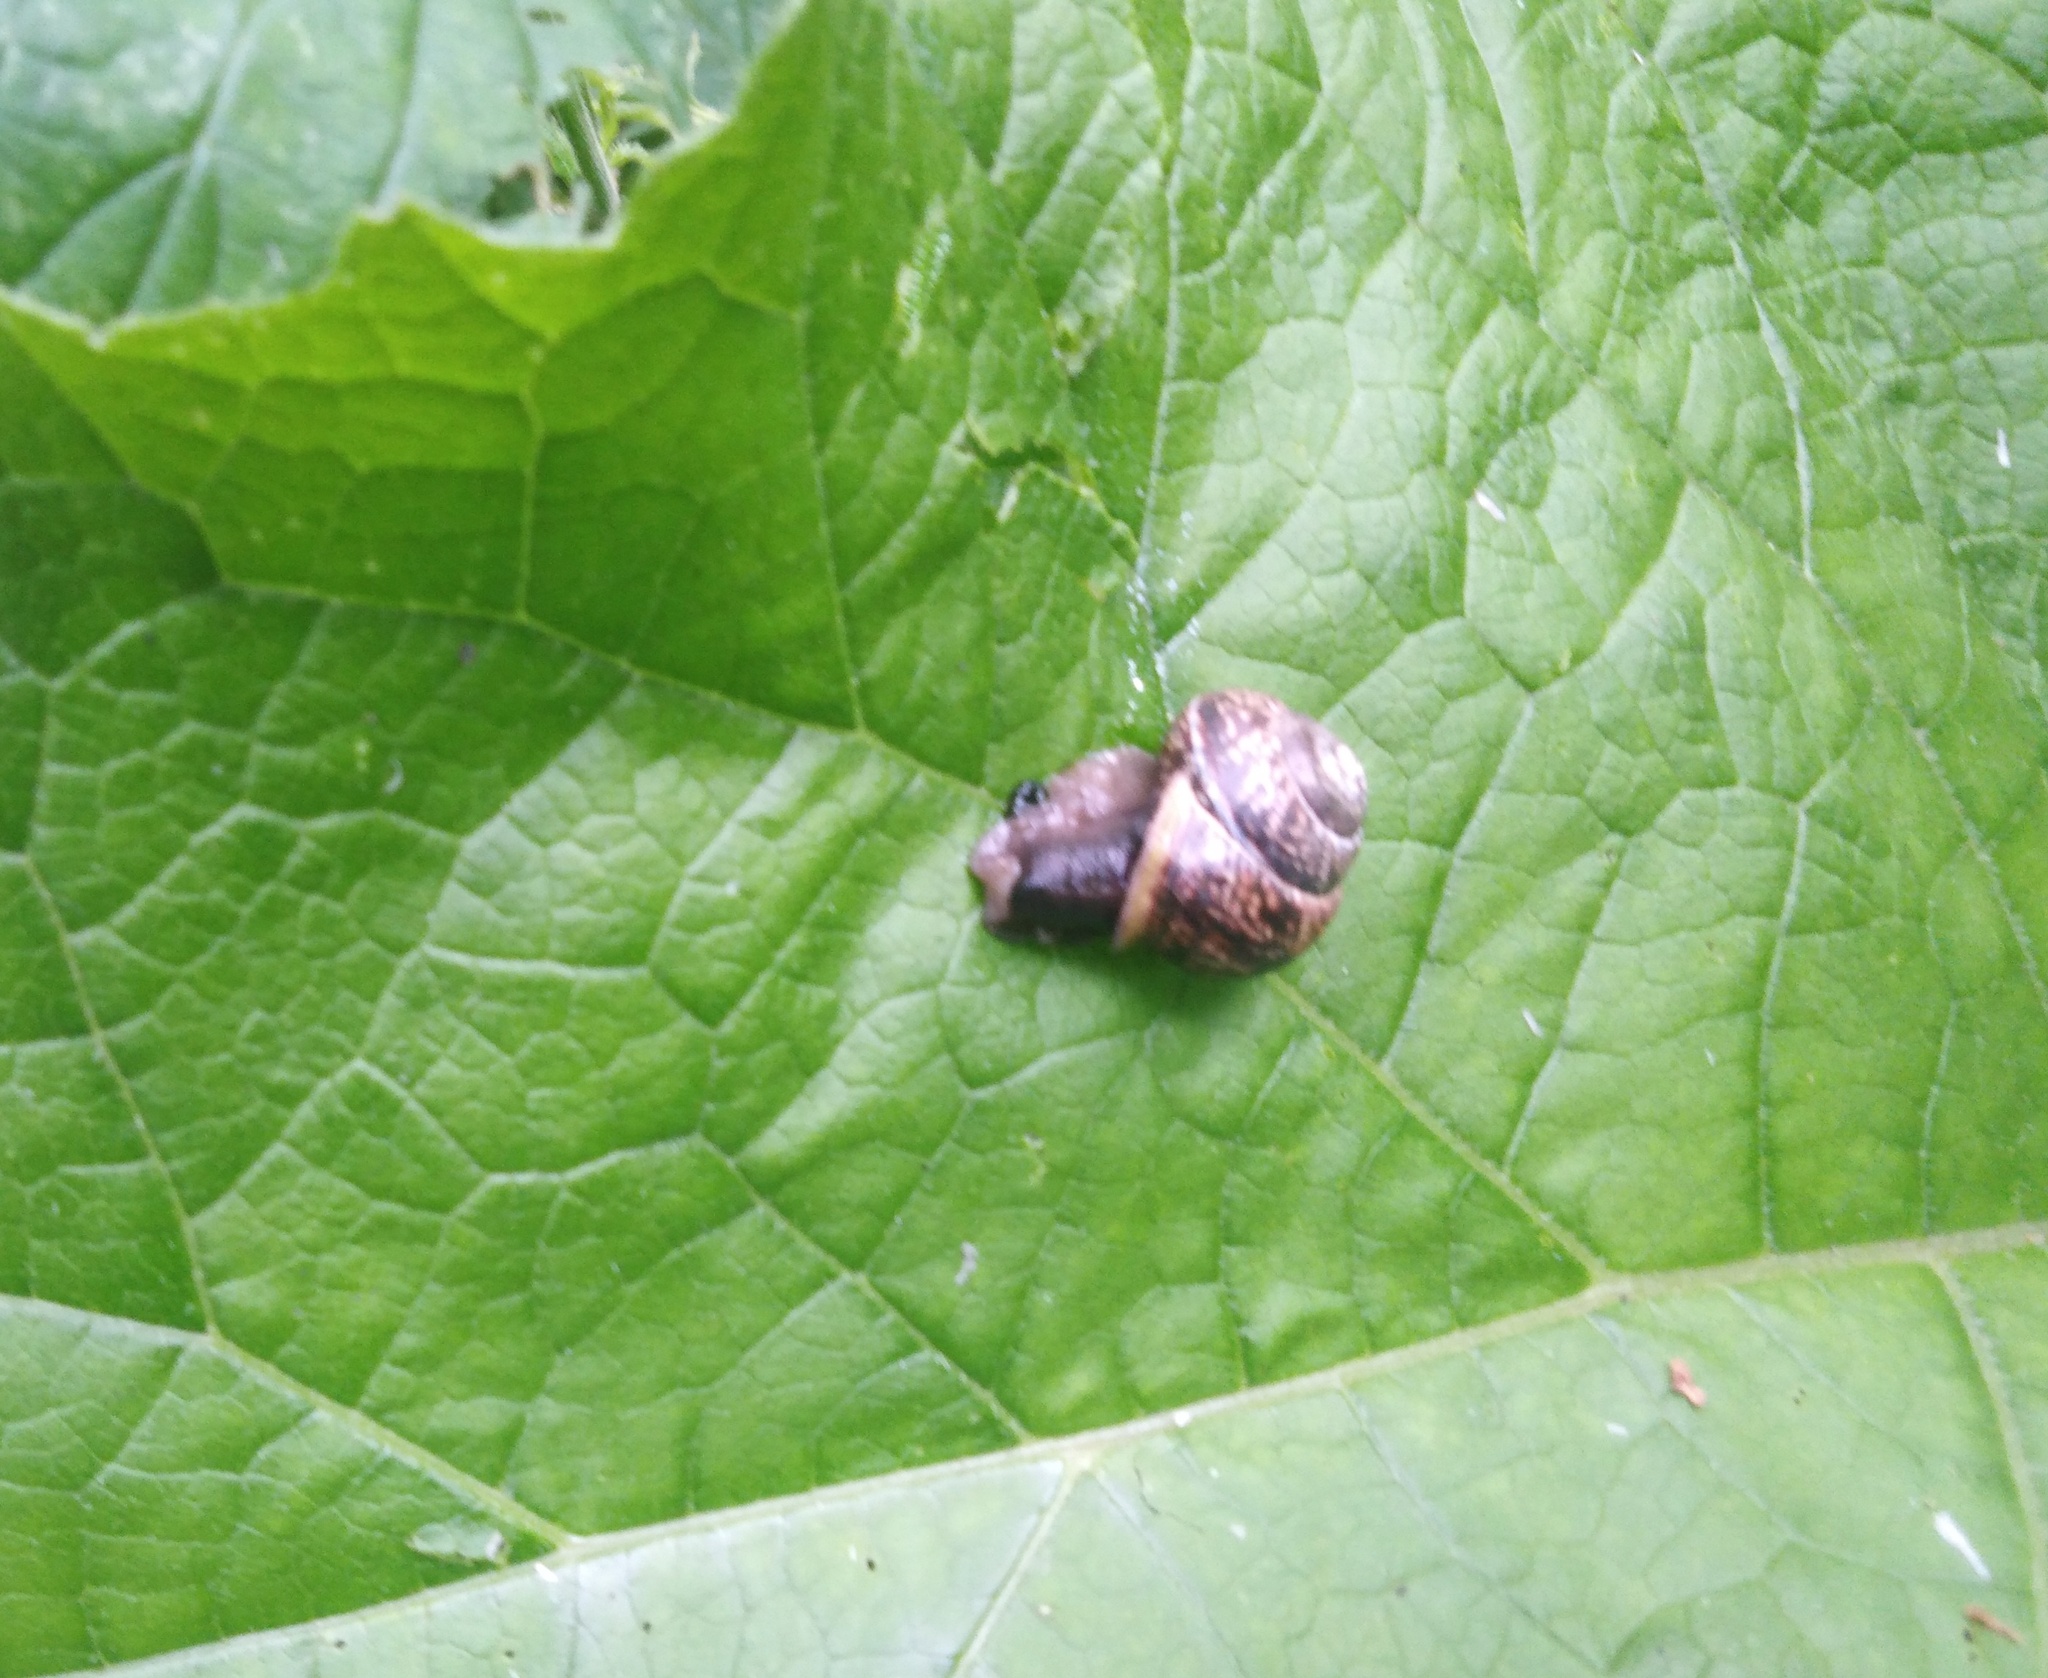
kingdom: Animalia
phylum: Mollusca
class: Gastropoda
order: Stylommatophora
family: Helicidae
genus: Arianta
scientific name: Arianta arbustorum
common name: Copse snail
